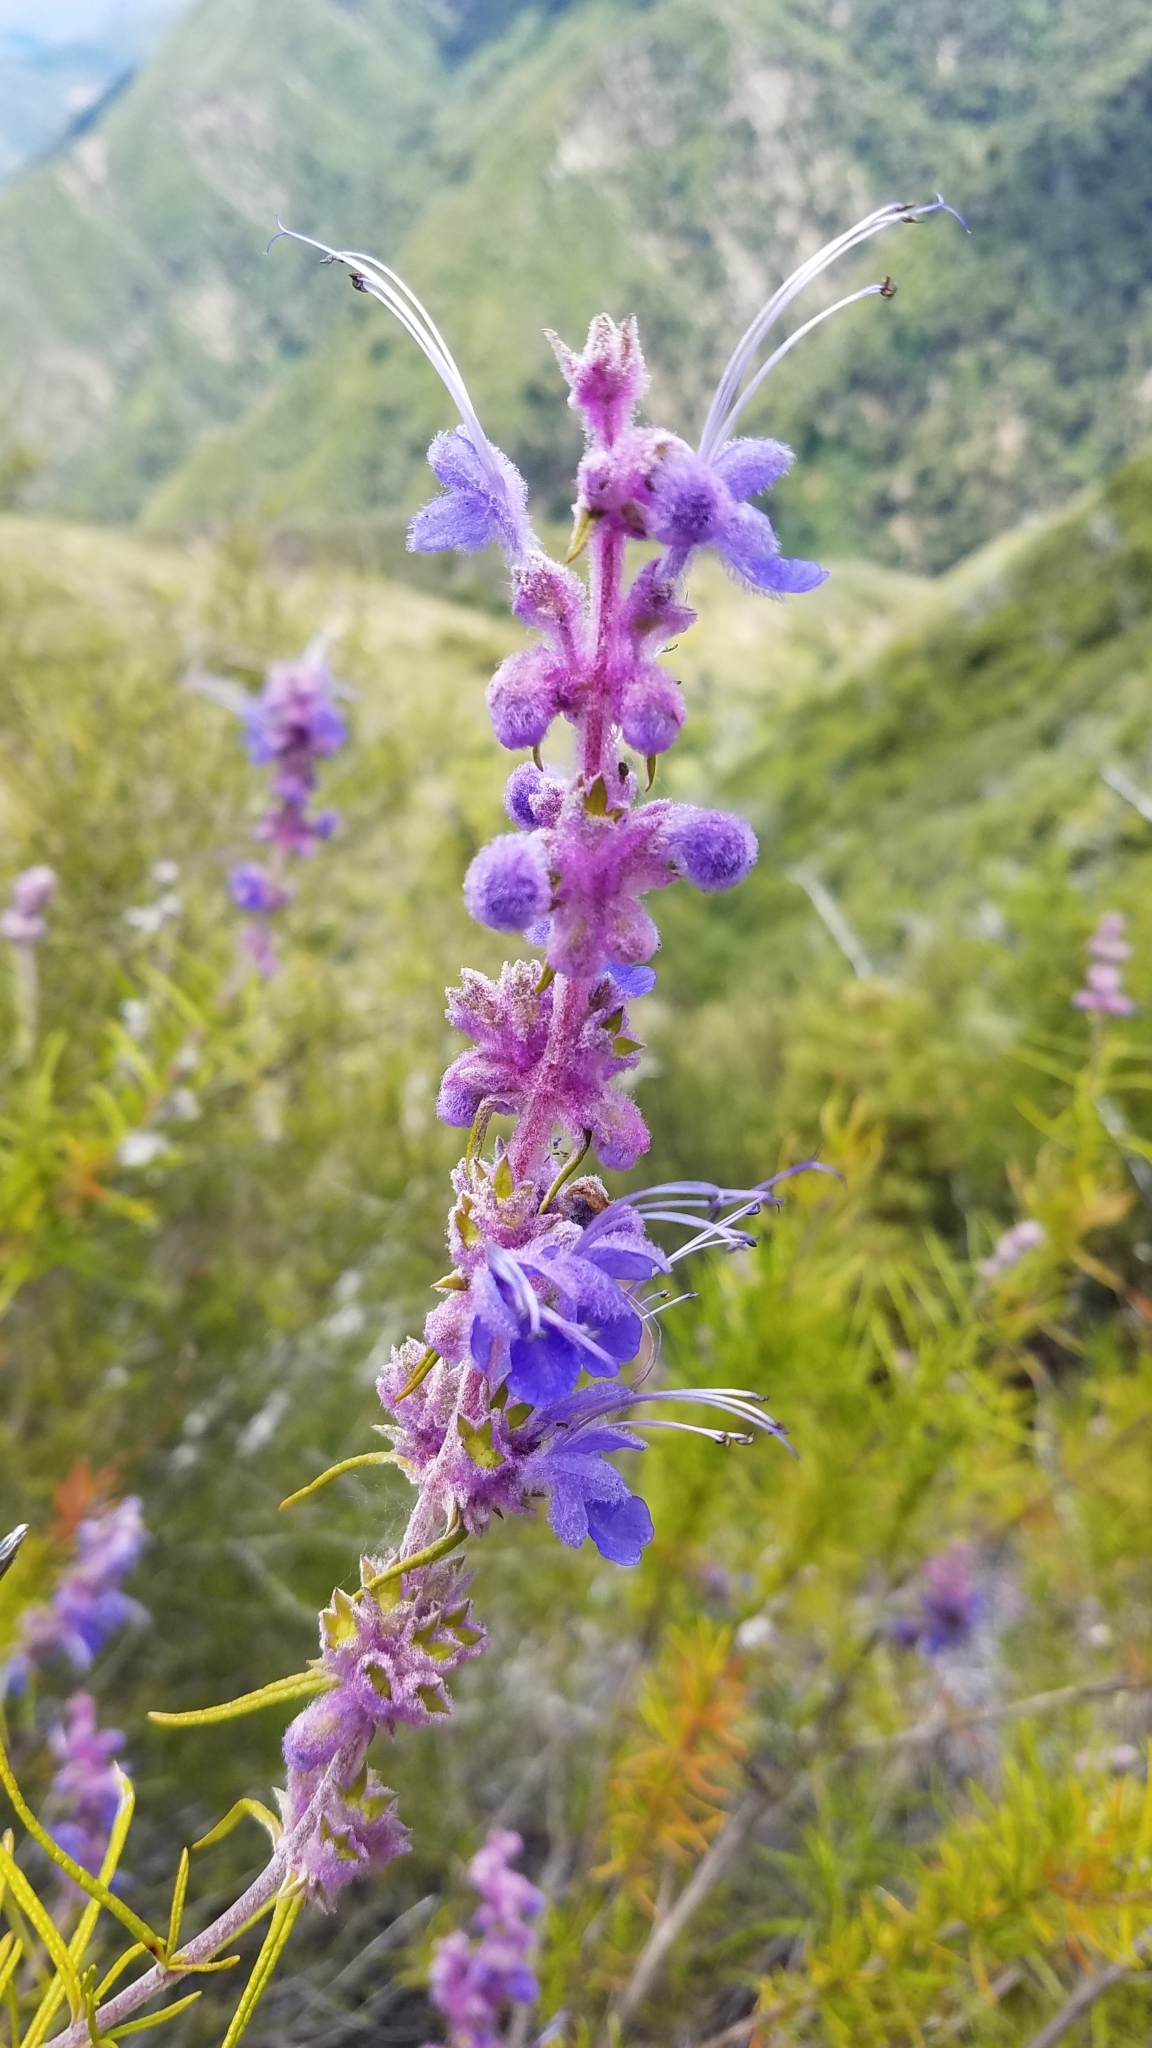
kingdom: Plantae
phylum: Tracheophyta
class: Magnoliopsida
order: Lamiales
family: Lamiaceae
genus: Trichostema
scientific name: Trichostema lanatum
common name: Woolly bluecurls
